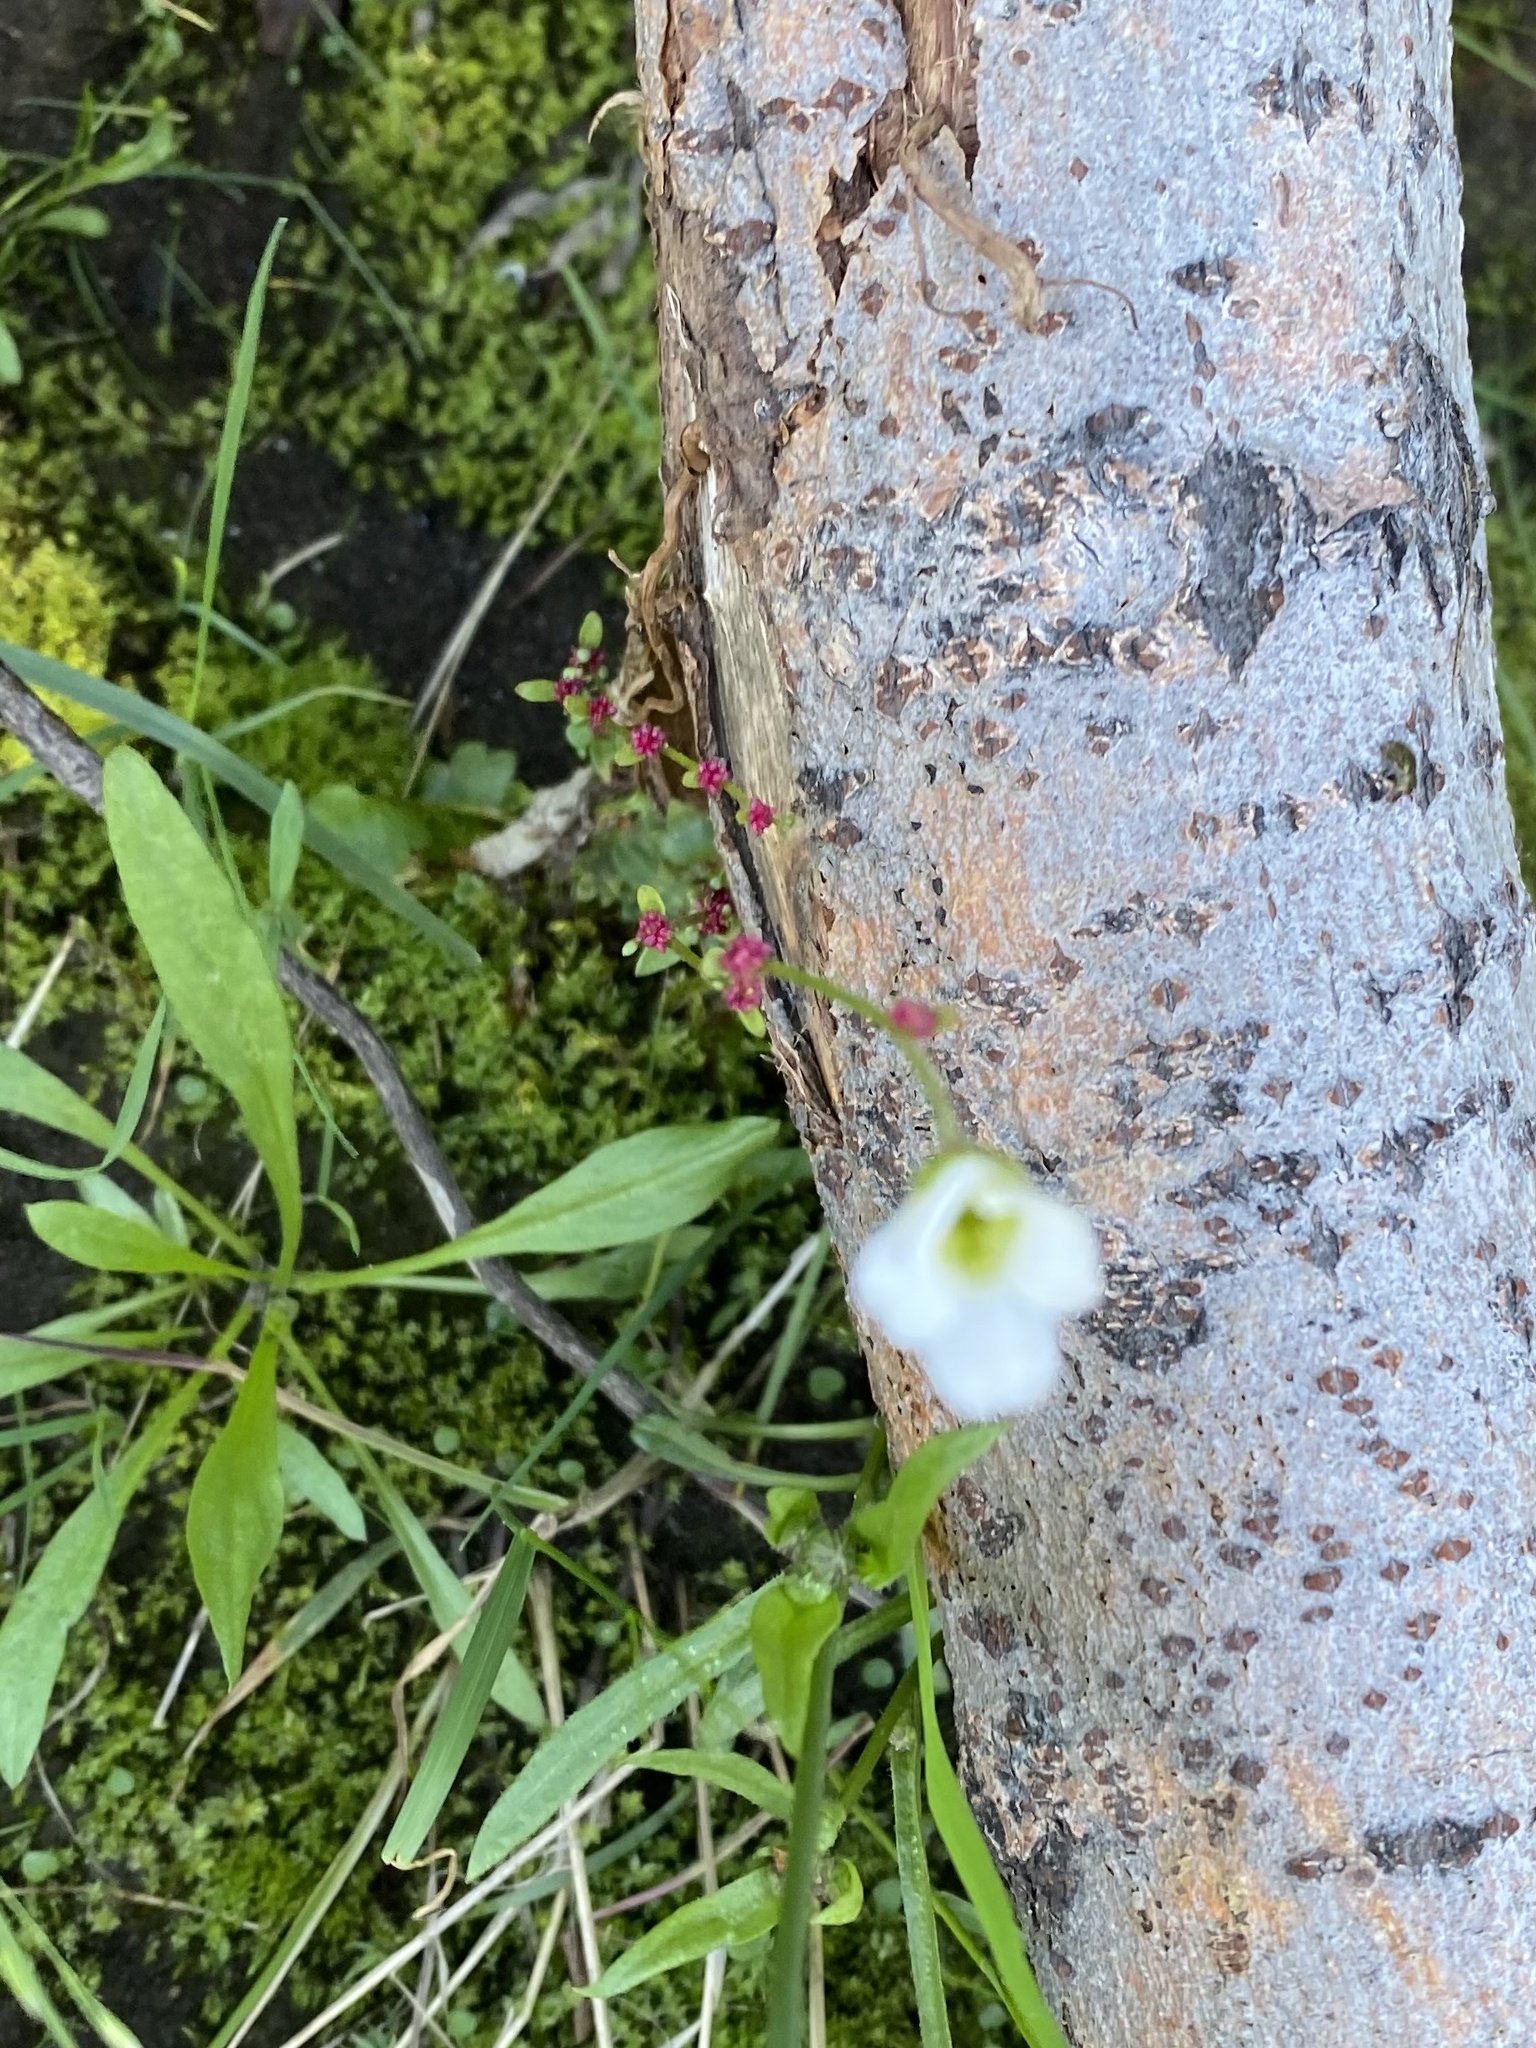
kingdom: Plantae
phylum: Tracheophyta
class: Magnoliopsida
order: Saxifragales
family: Saxifragaceae
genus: Saxifraga
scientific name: Saxifraga cernua
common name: Drooping saxifrage
